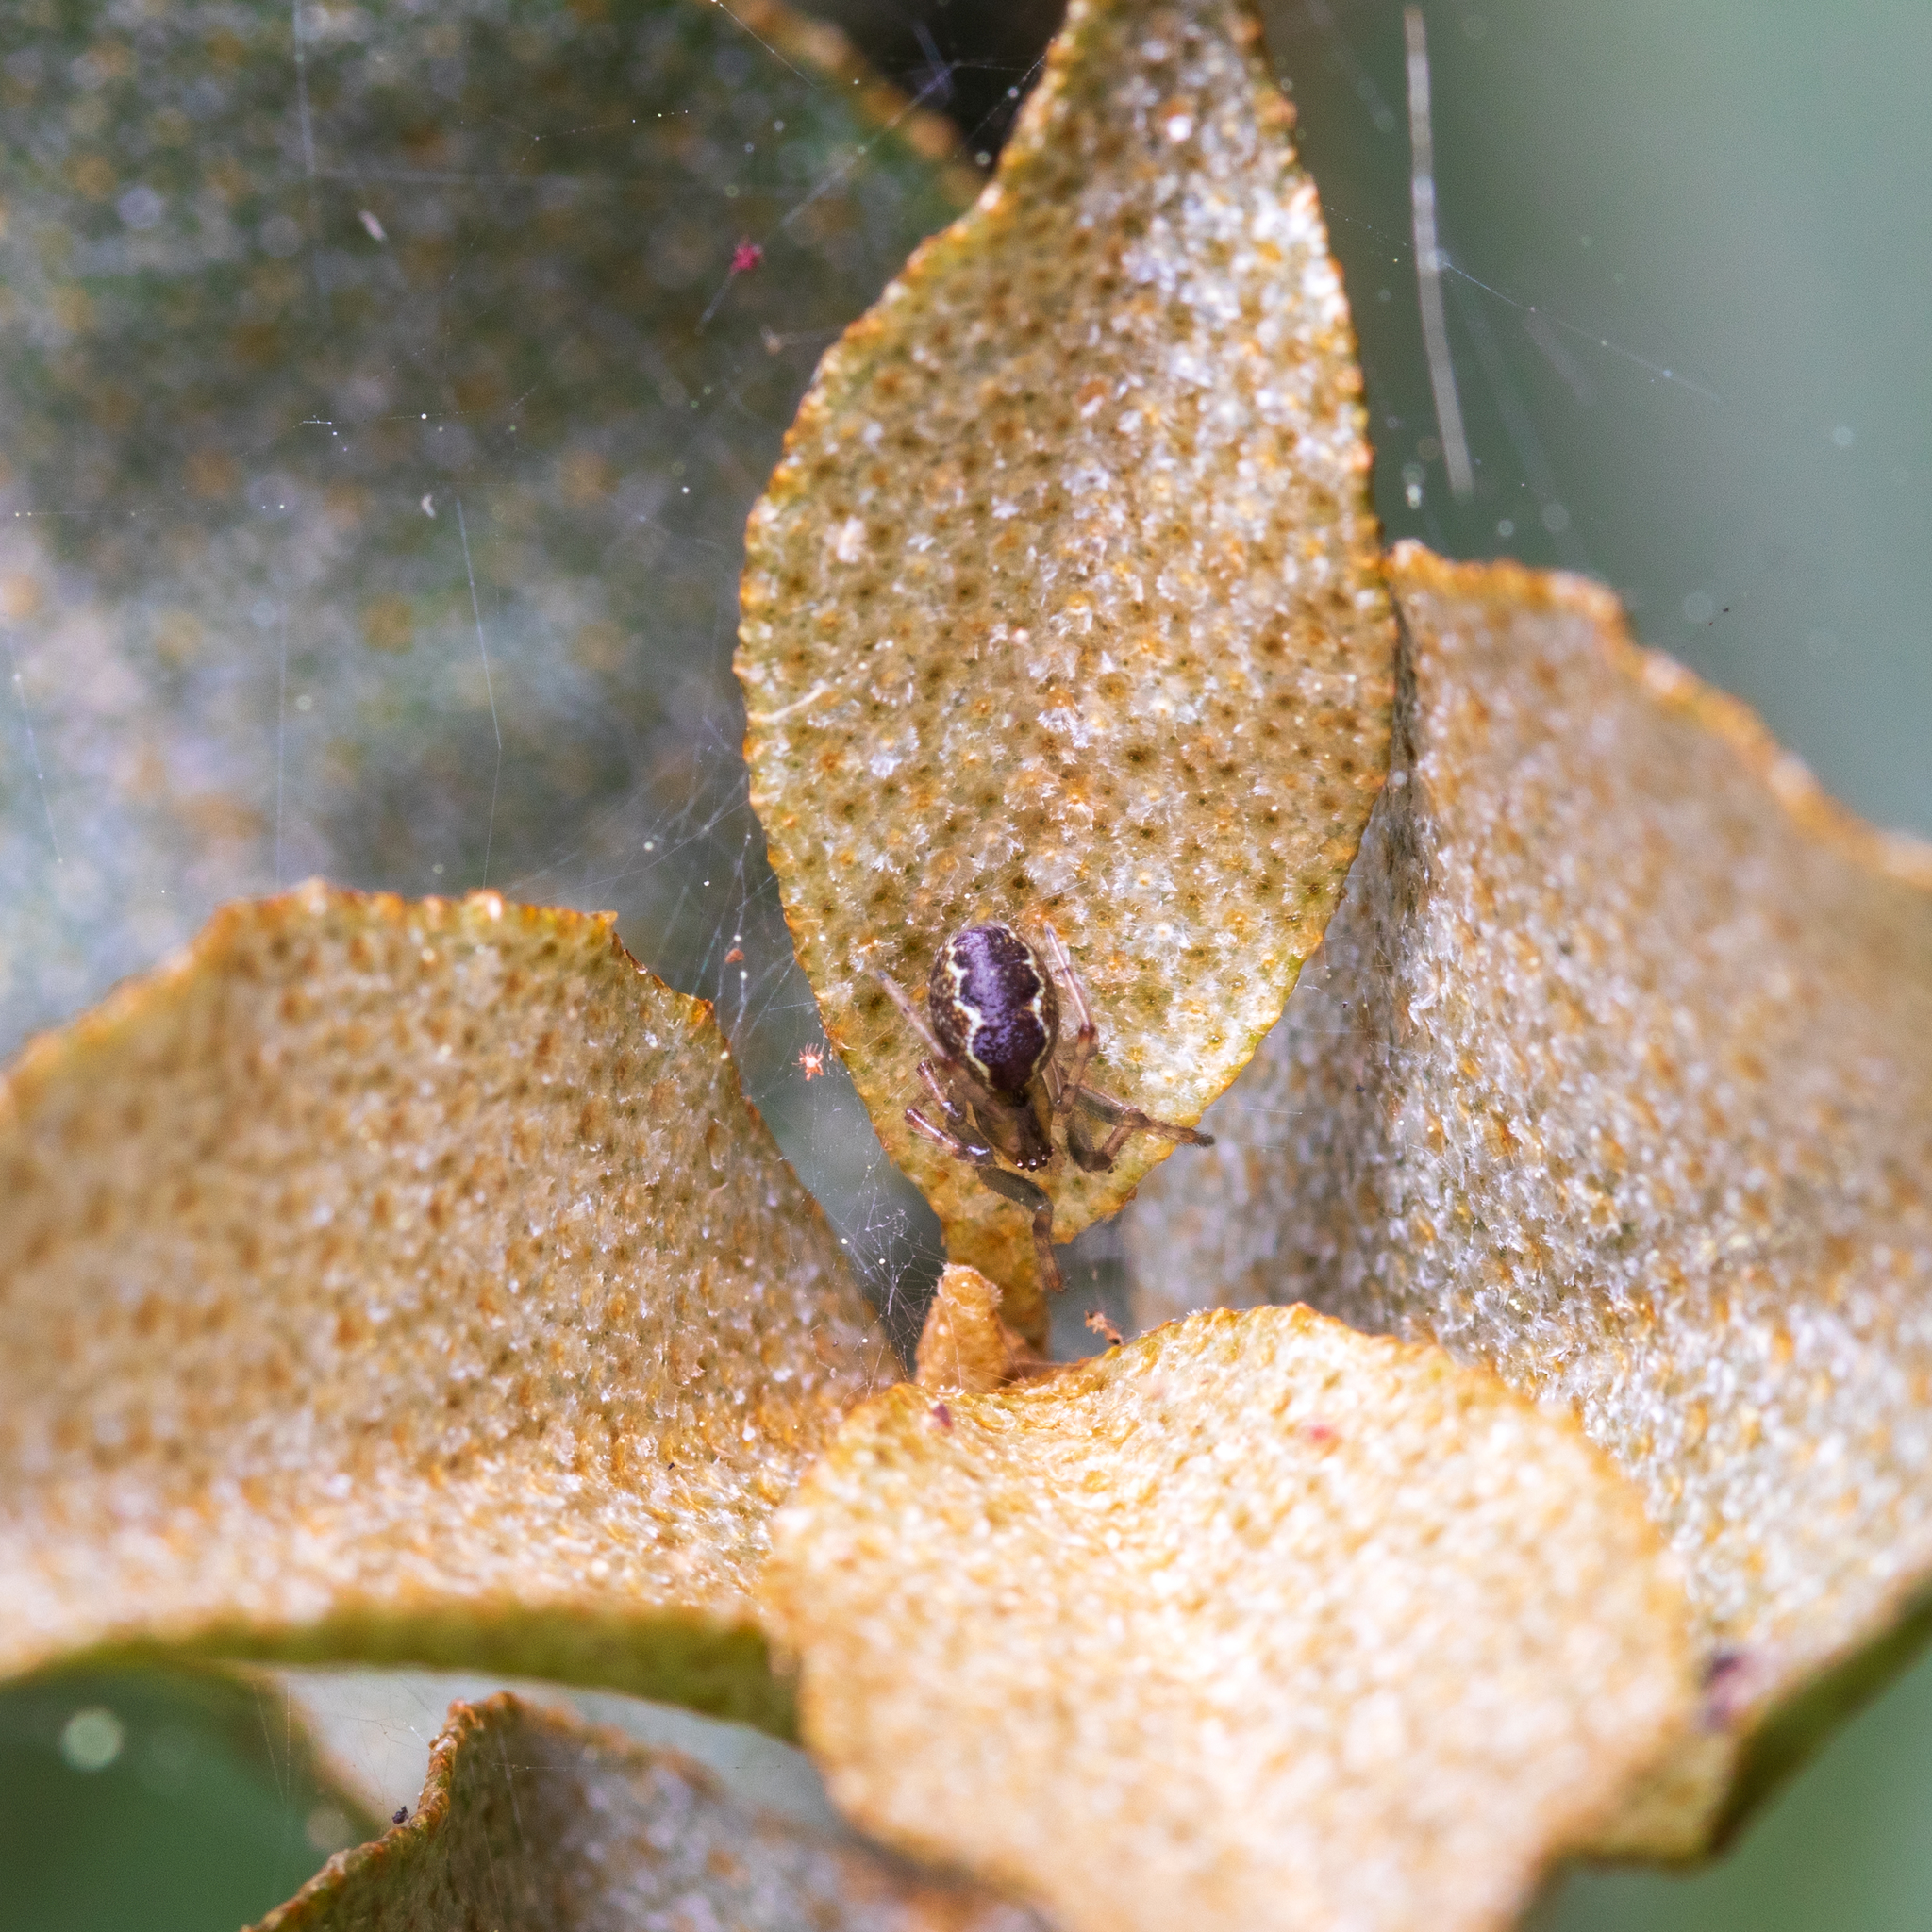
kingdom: Animalia
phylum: Arthropoda
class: Arachnida
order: Araneae
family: Theridiidae
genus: Anelosimus
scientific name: Anelosimus studiosus
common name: Cobweb spiders
